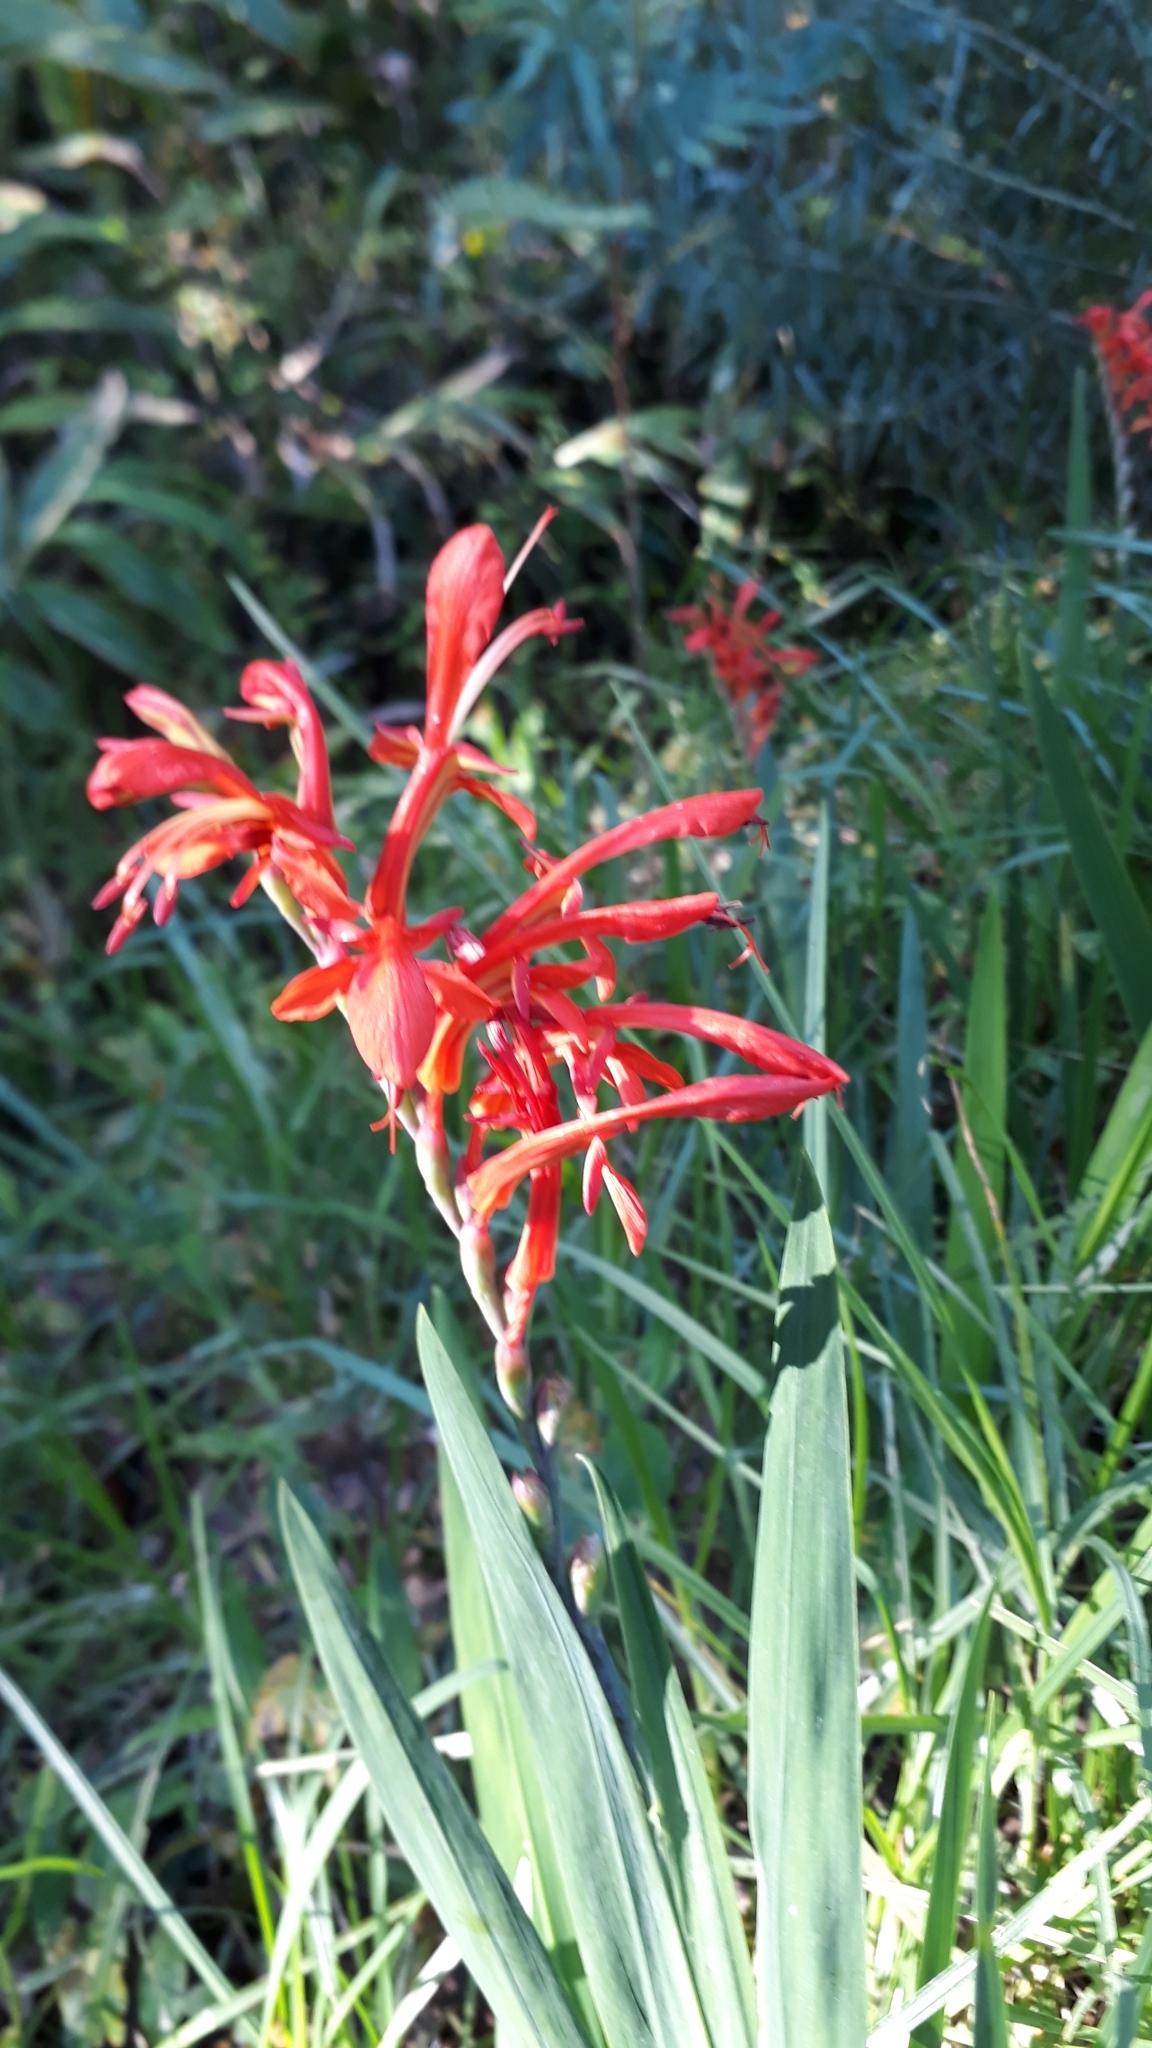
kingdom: Plantae
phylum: Tracheophyta
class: Liliopsida
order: Asparagales
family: Iridaceae
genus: Chasmanthe
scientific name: Chasmanthe aethiopica
